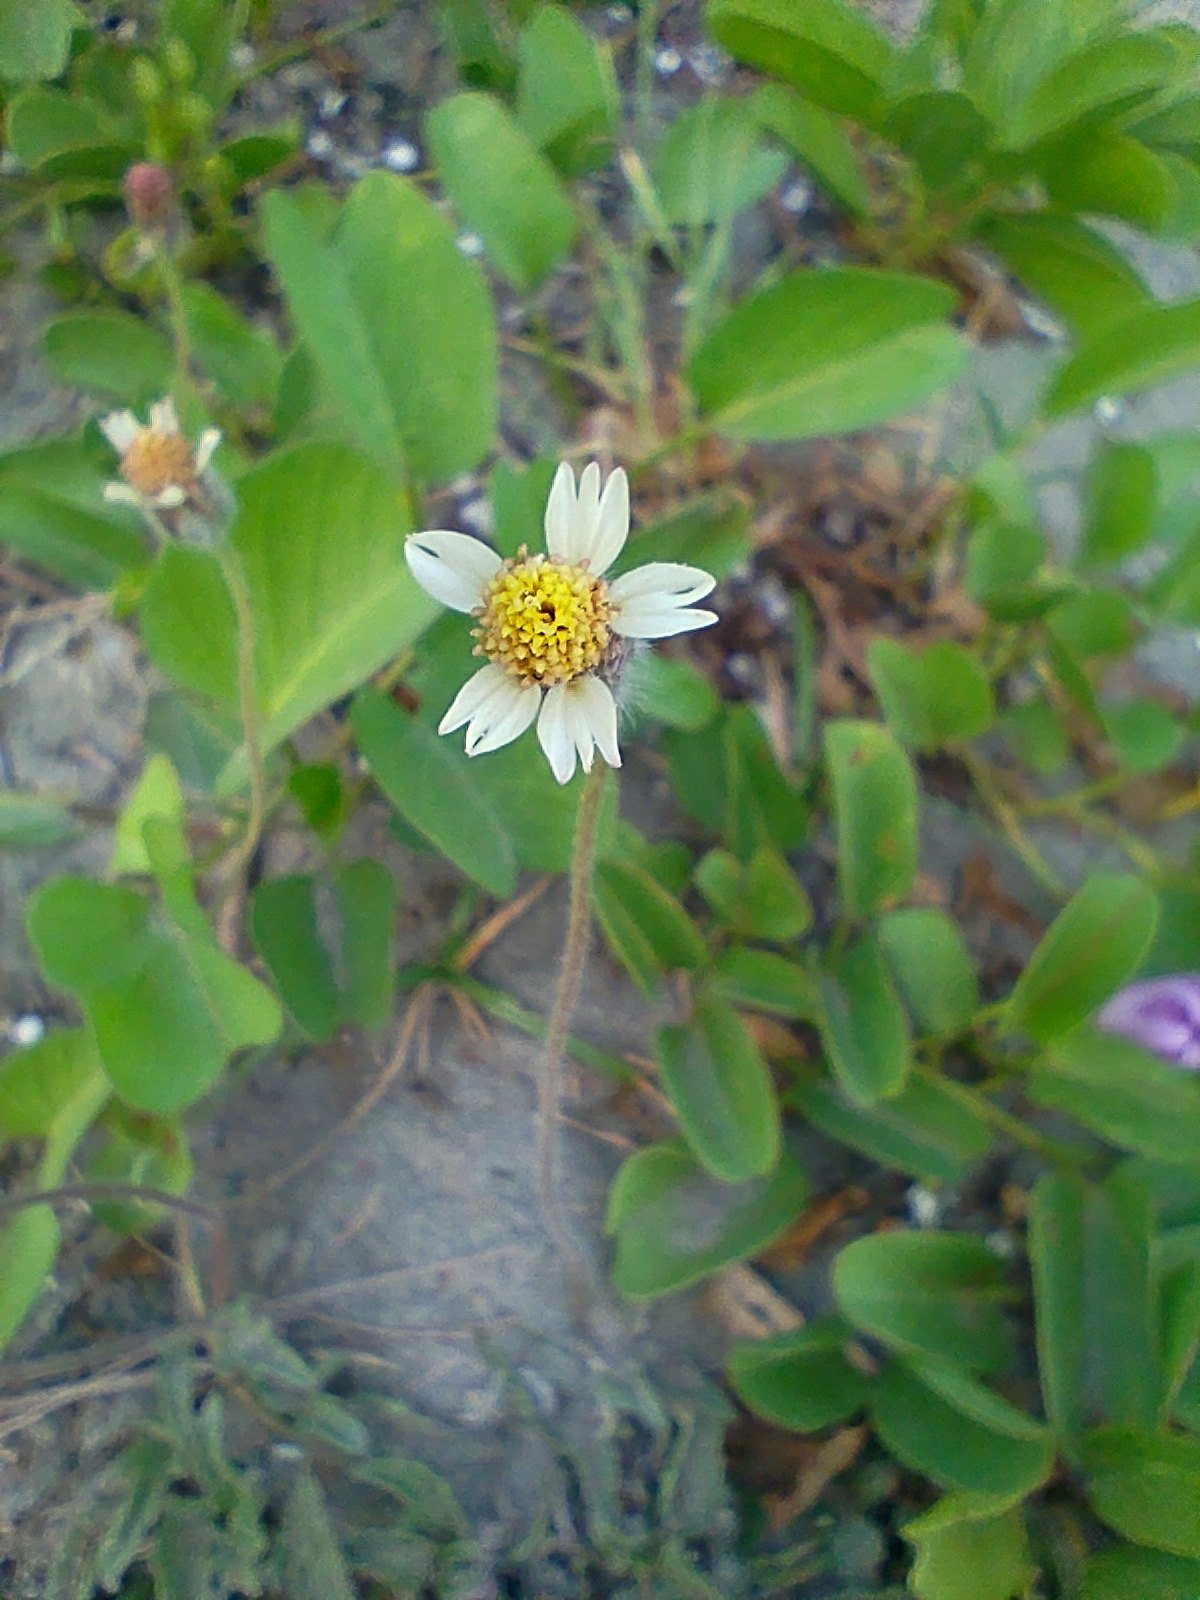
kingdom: Plantae
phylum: Tracheophyta
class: Magnoliopsida
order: Asterales
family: Asteraceae
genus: Tridax
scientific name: Tridax procumbens
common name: Coatbuttons
